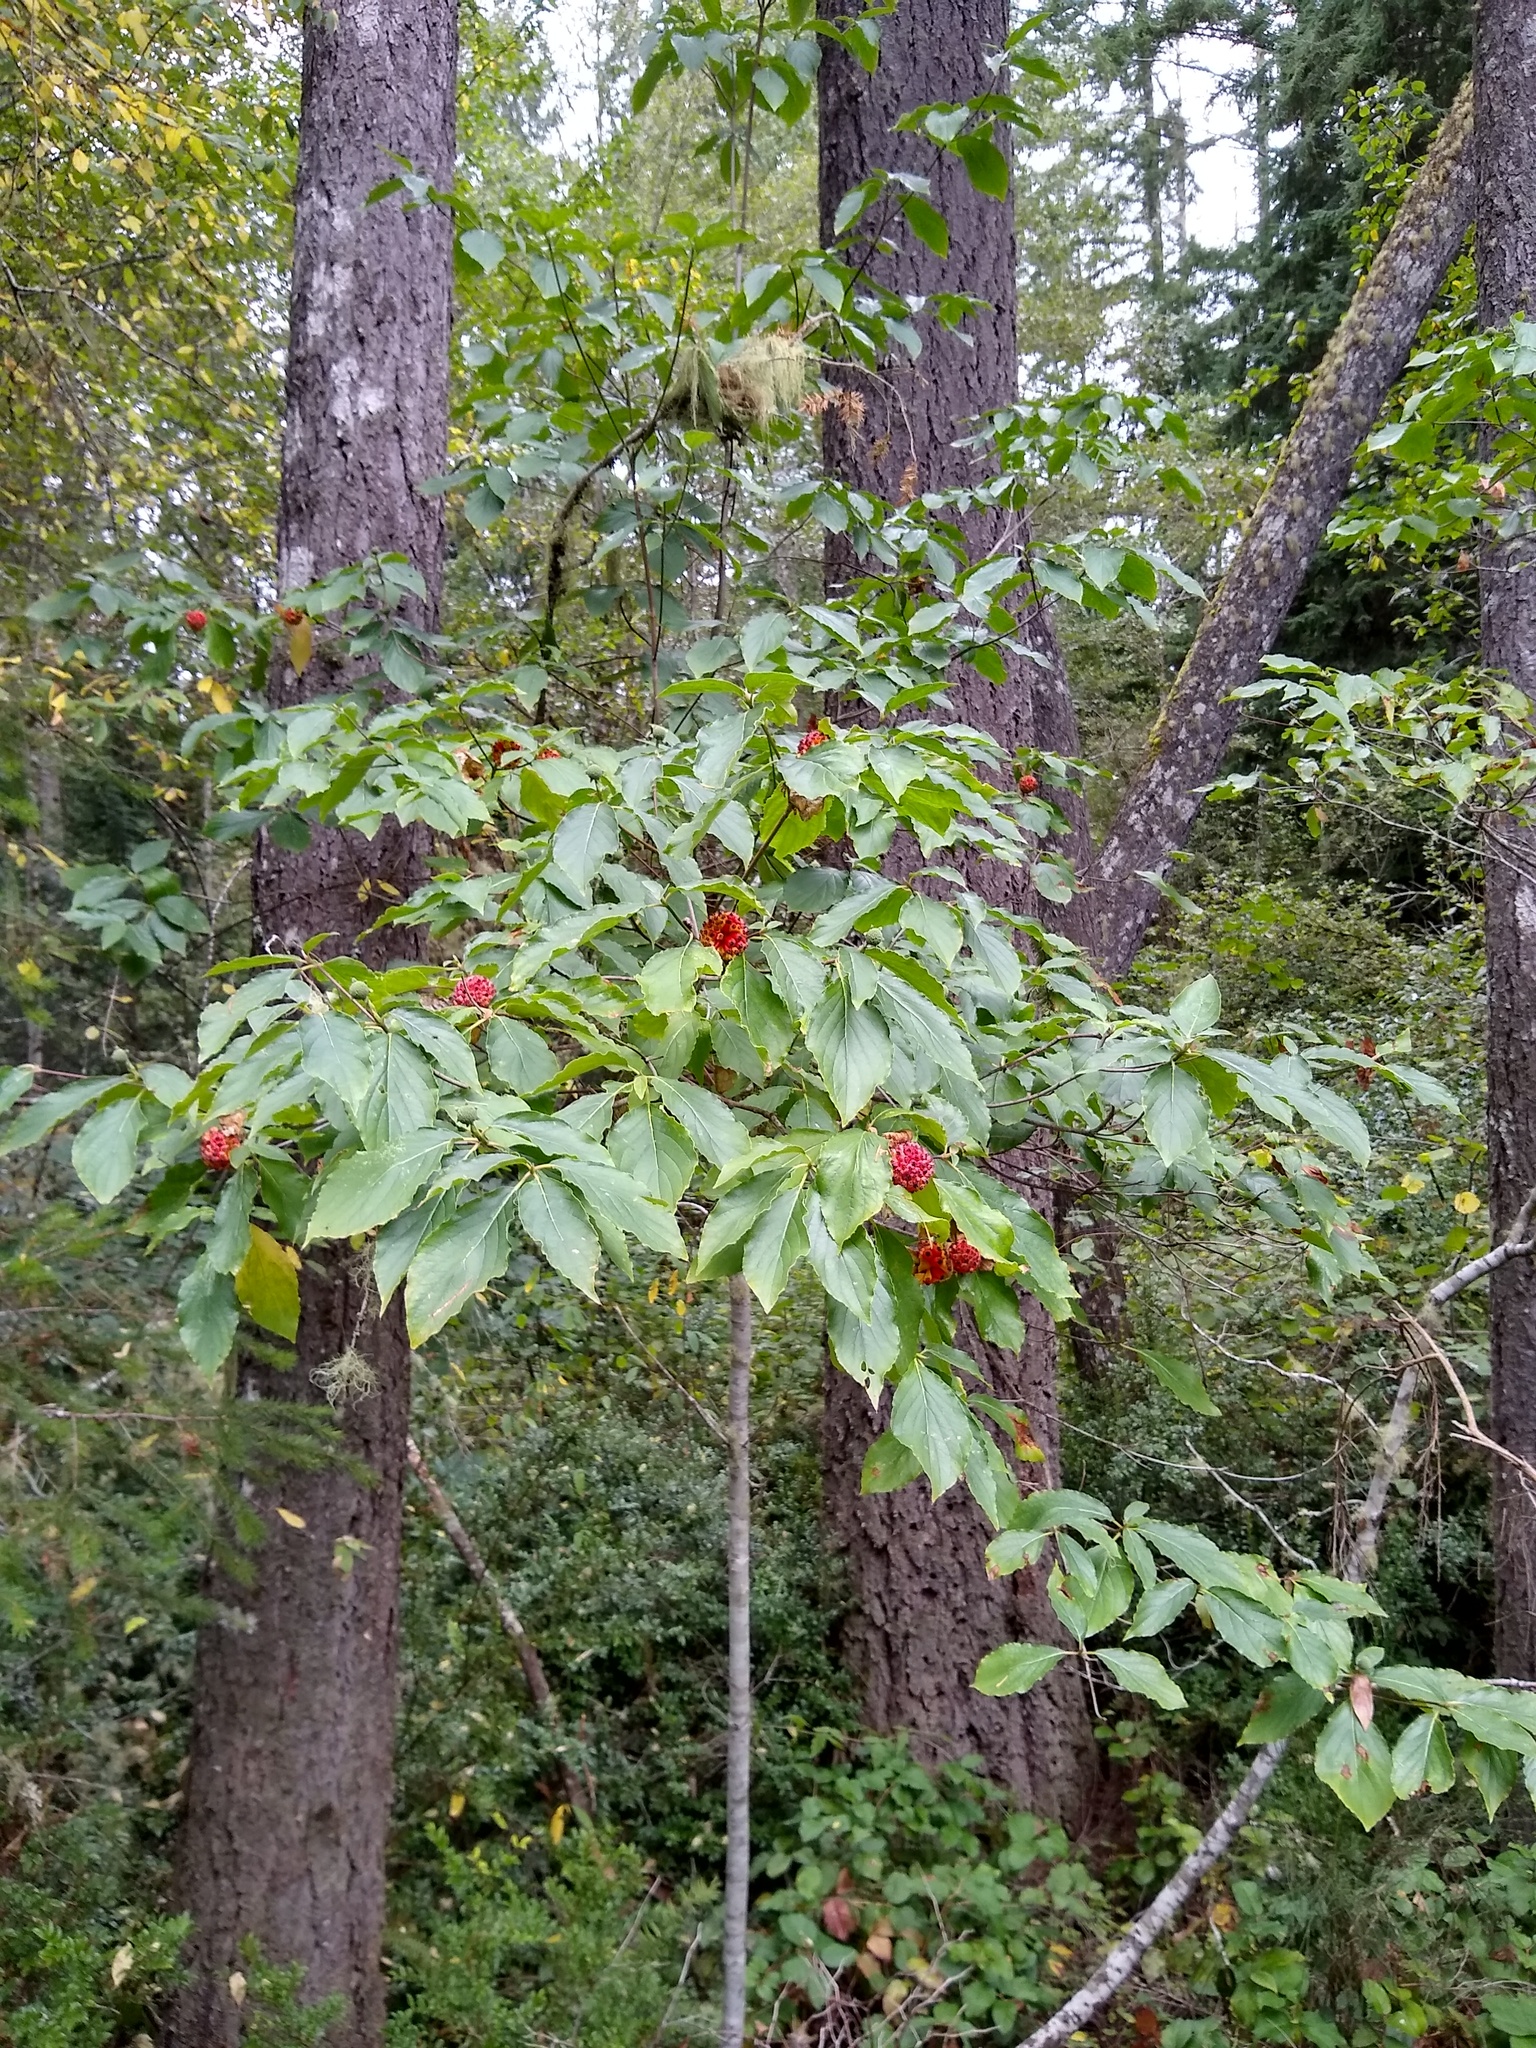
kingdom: Plantae
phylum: Tracheophyta
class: Magnoliopsida
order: Cornales
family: Cornaceae
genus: Cornus
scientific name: Cornus nuttallii
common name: Pacific dogwood
